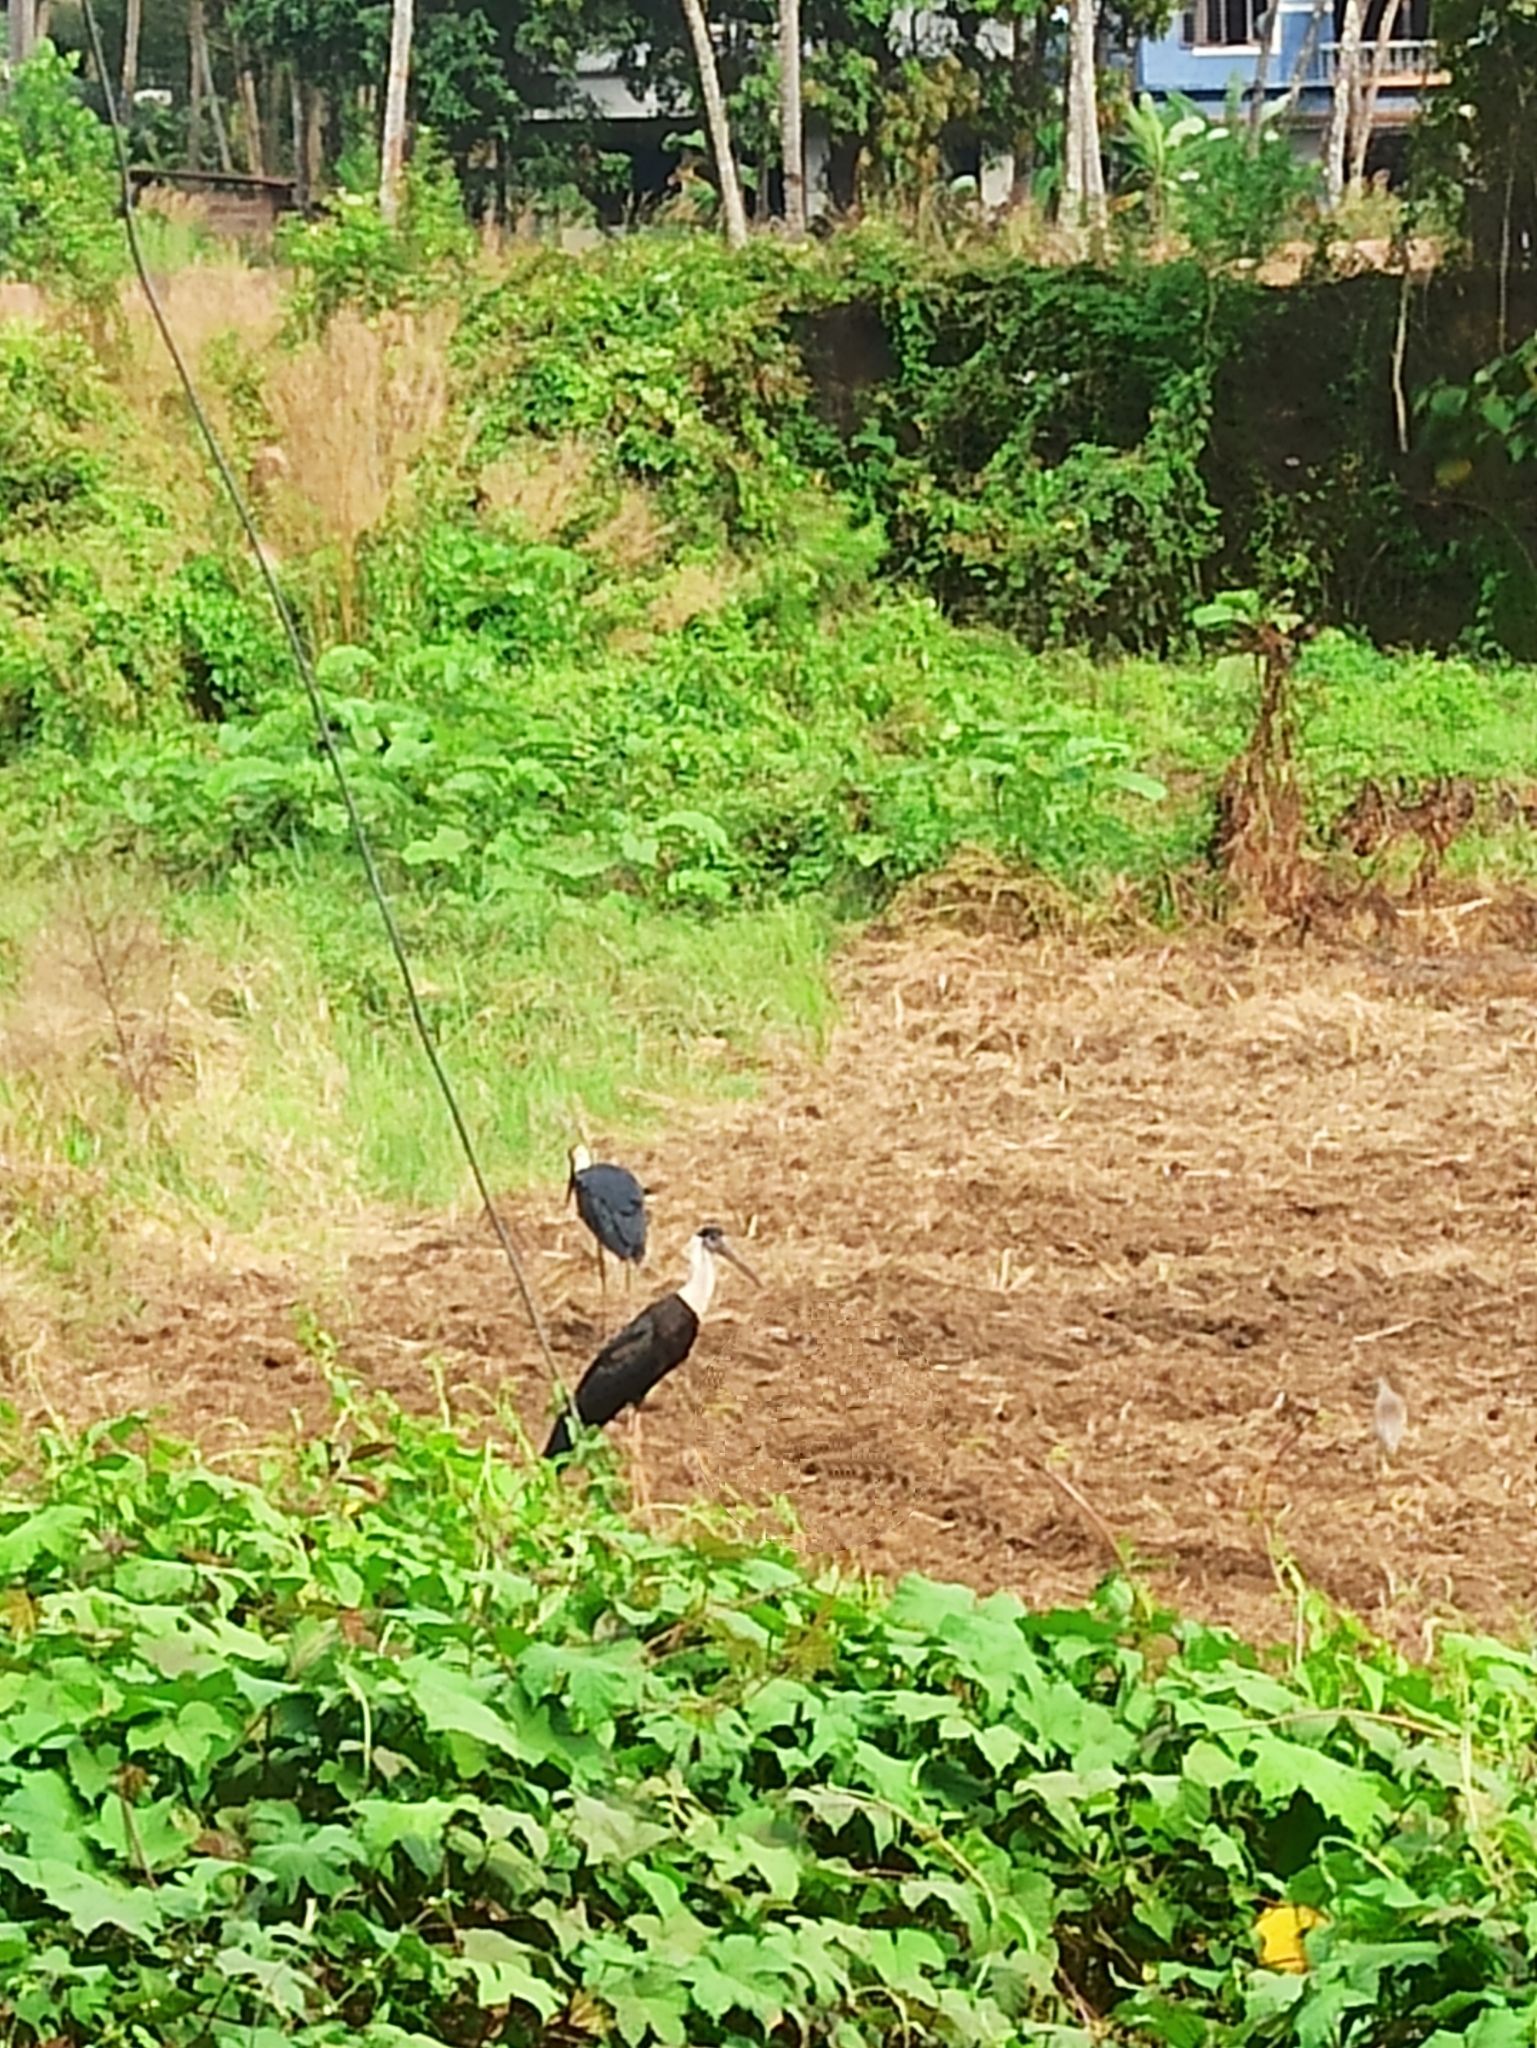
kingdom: Animalia
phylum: Chordata
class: Aves
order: Ciconiiformes
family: Ciconiidae
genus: Ciconia
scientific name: Ciconia episcopus
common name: Woolly-necked stork
